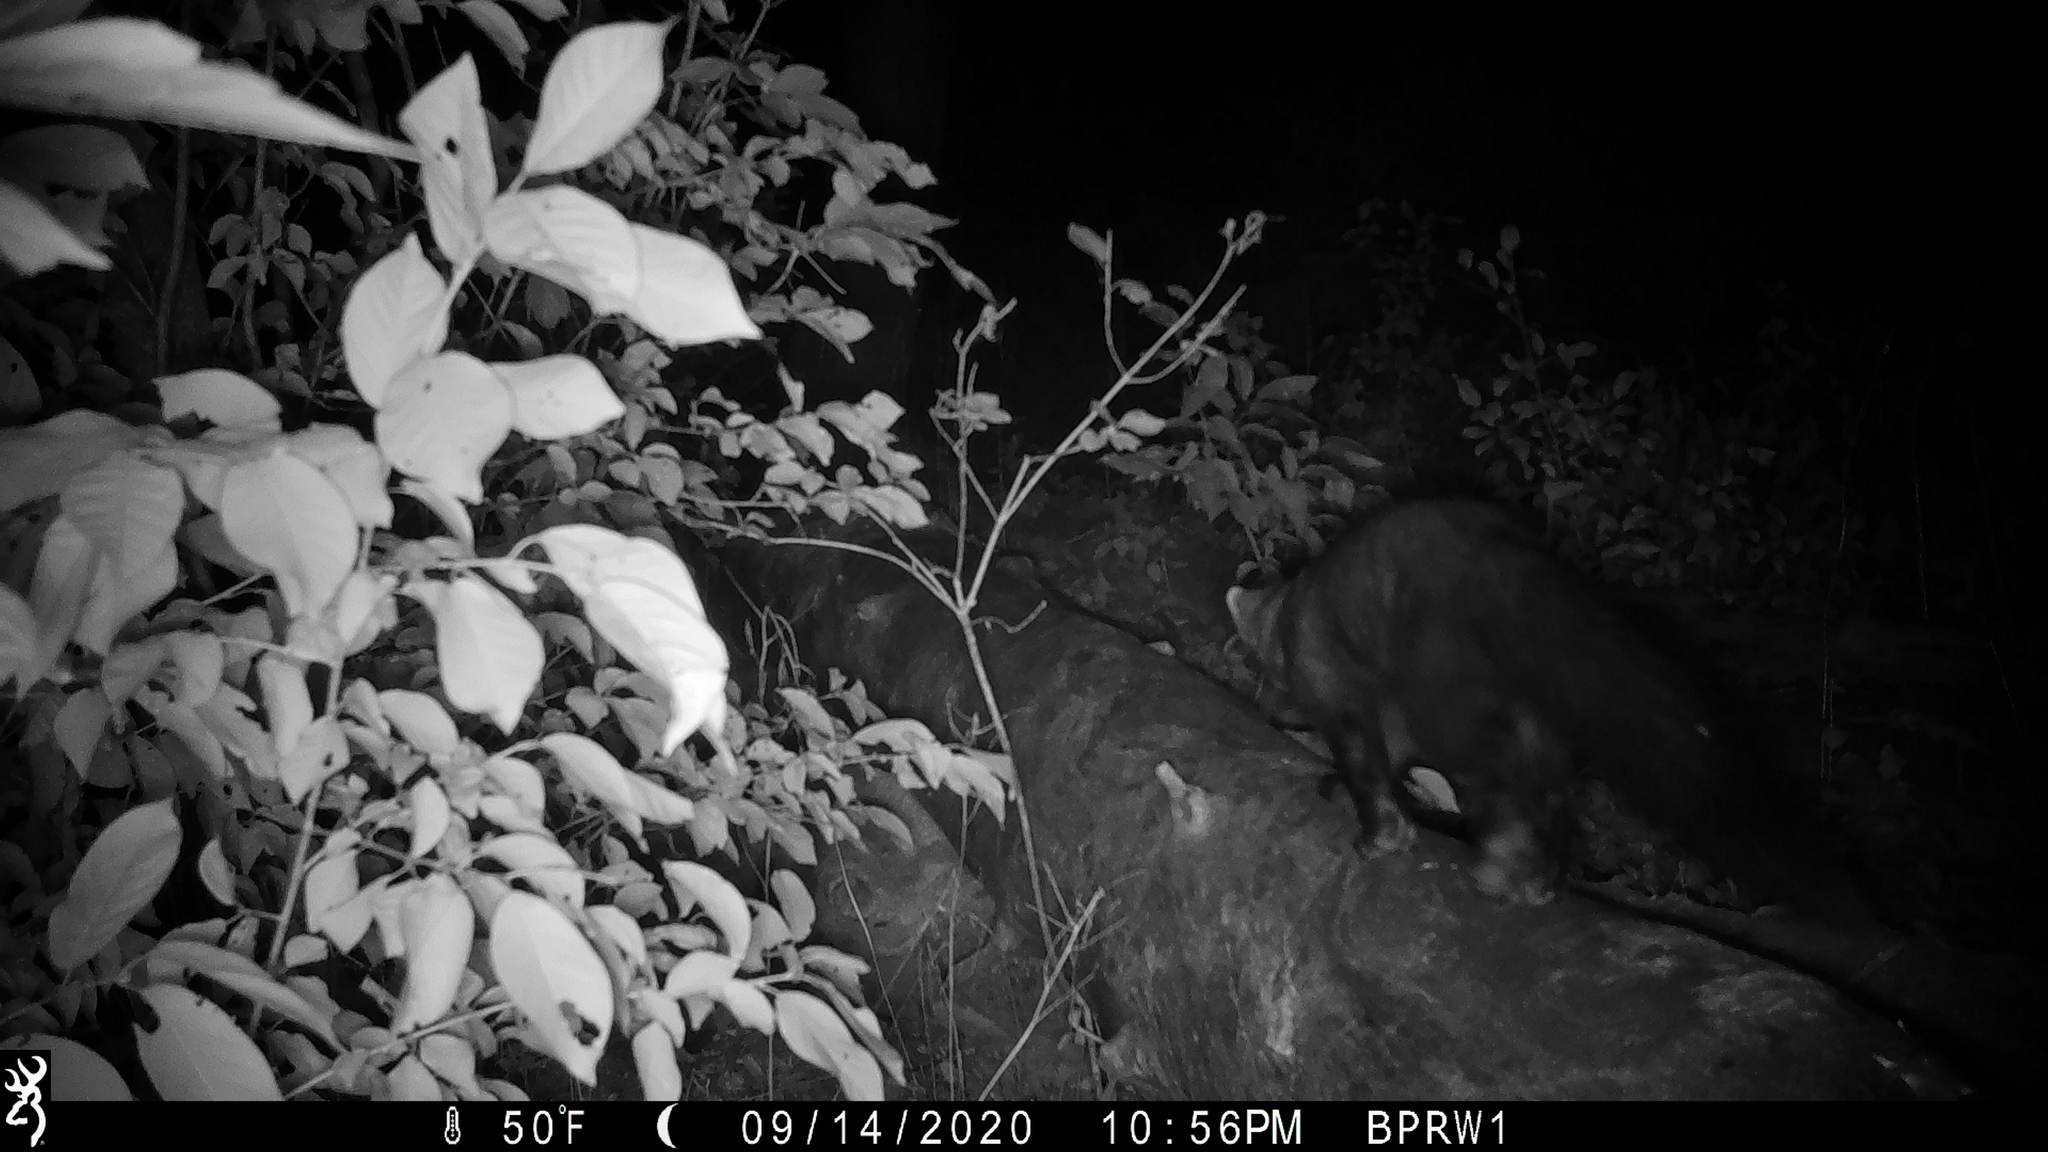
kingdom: Animalia
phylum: Chordata
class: Mammalia
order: Carnivora
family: Mustelidae
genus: Pekania
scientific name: Pekania pennanti
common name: Fisher
